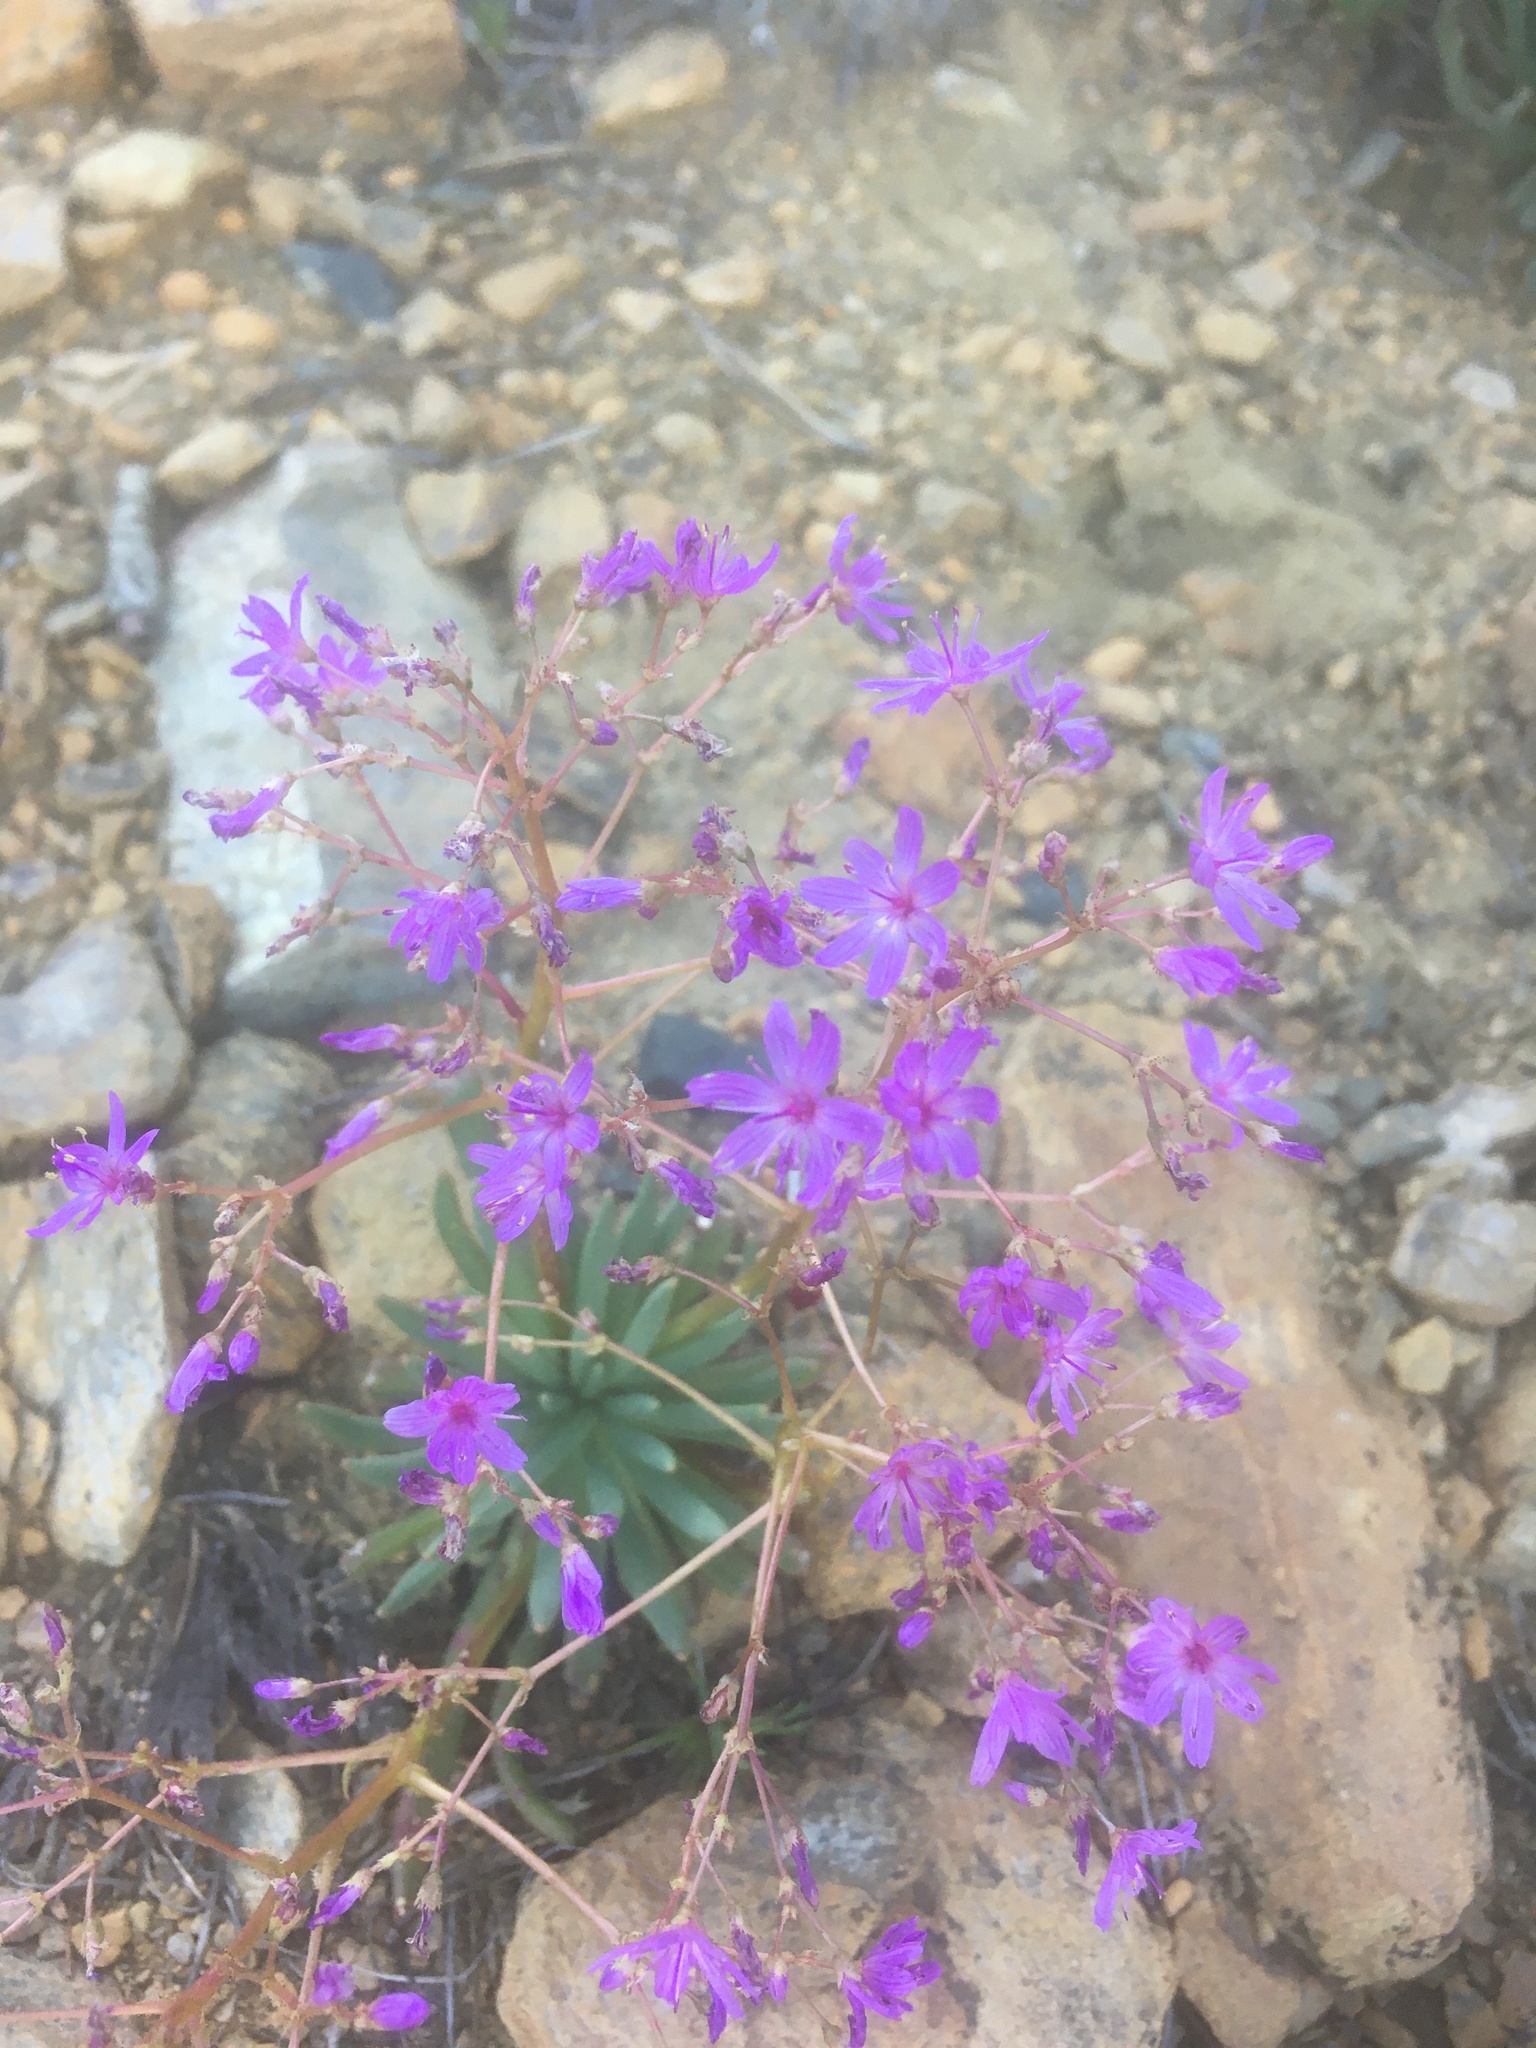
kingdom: Plantae
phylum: Tracheophyta
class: Magnoliopsida
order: Caryophyllales
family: Montiaceae
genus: Lewisia
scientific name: Lewisia leeana
